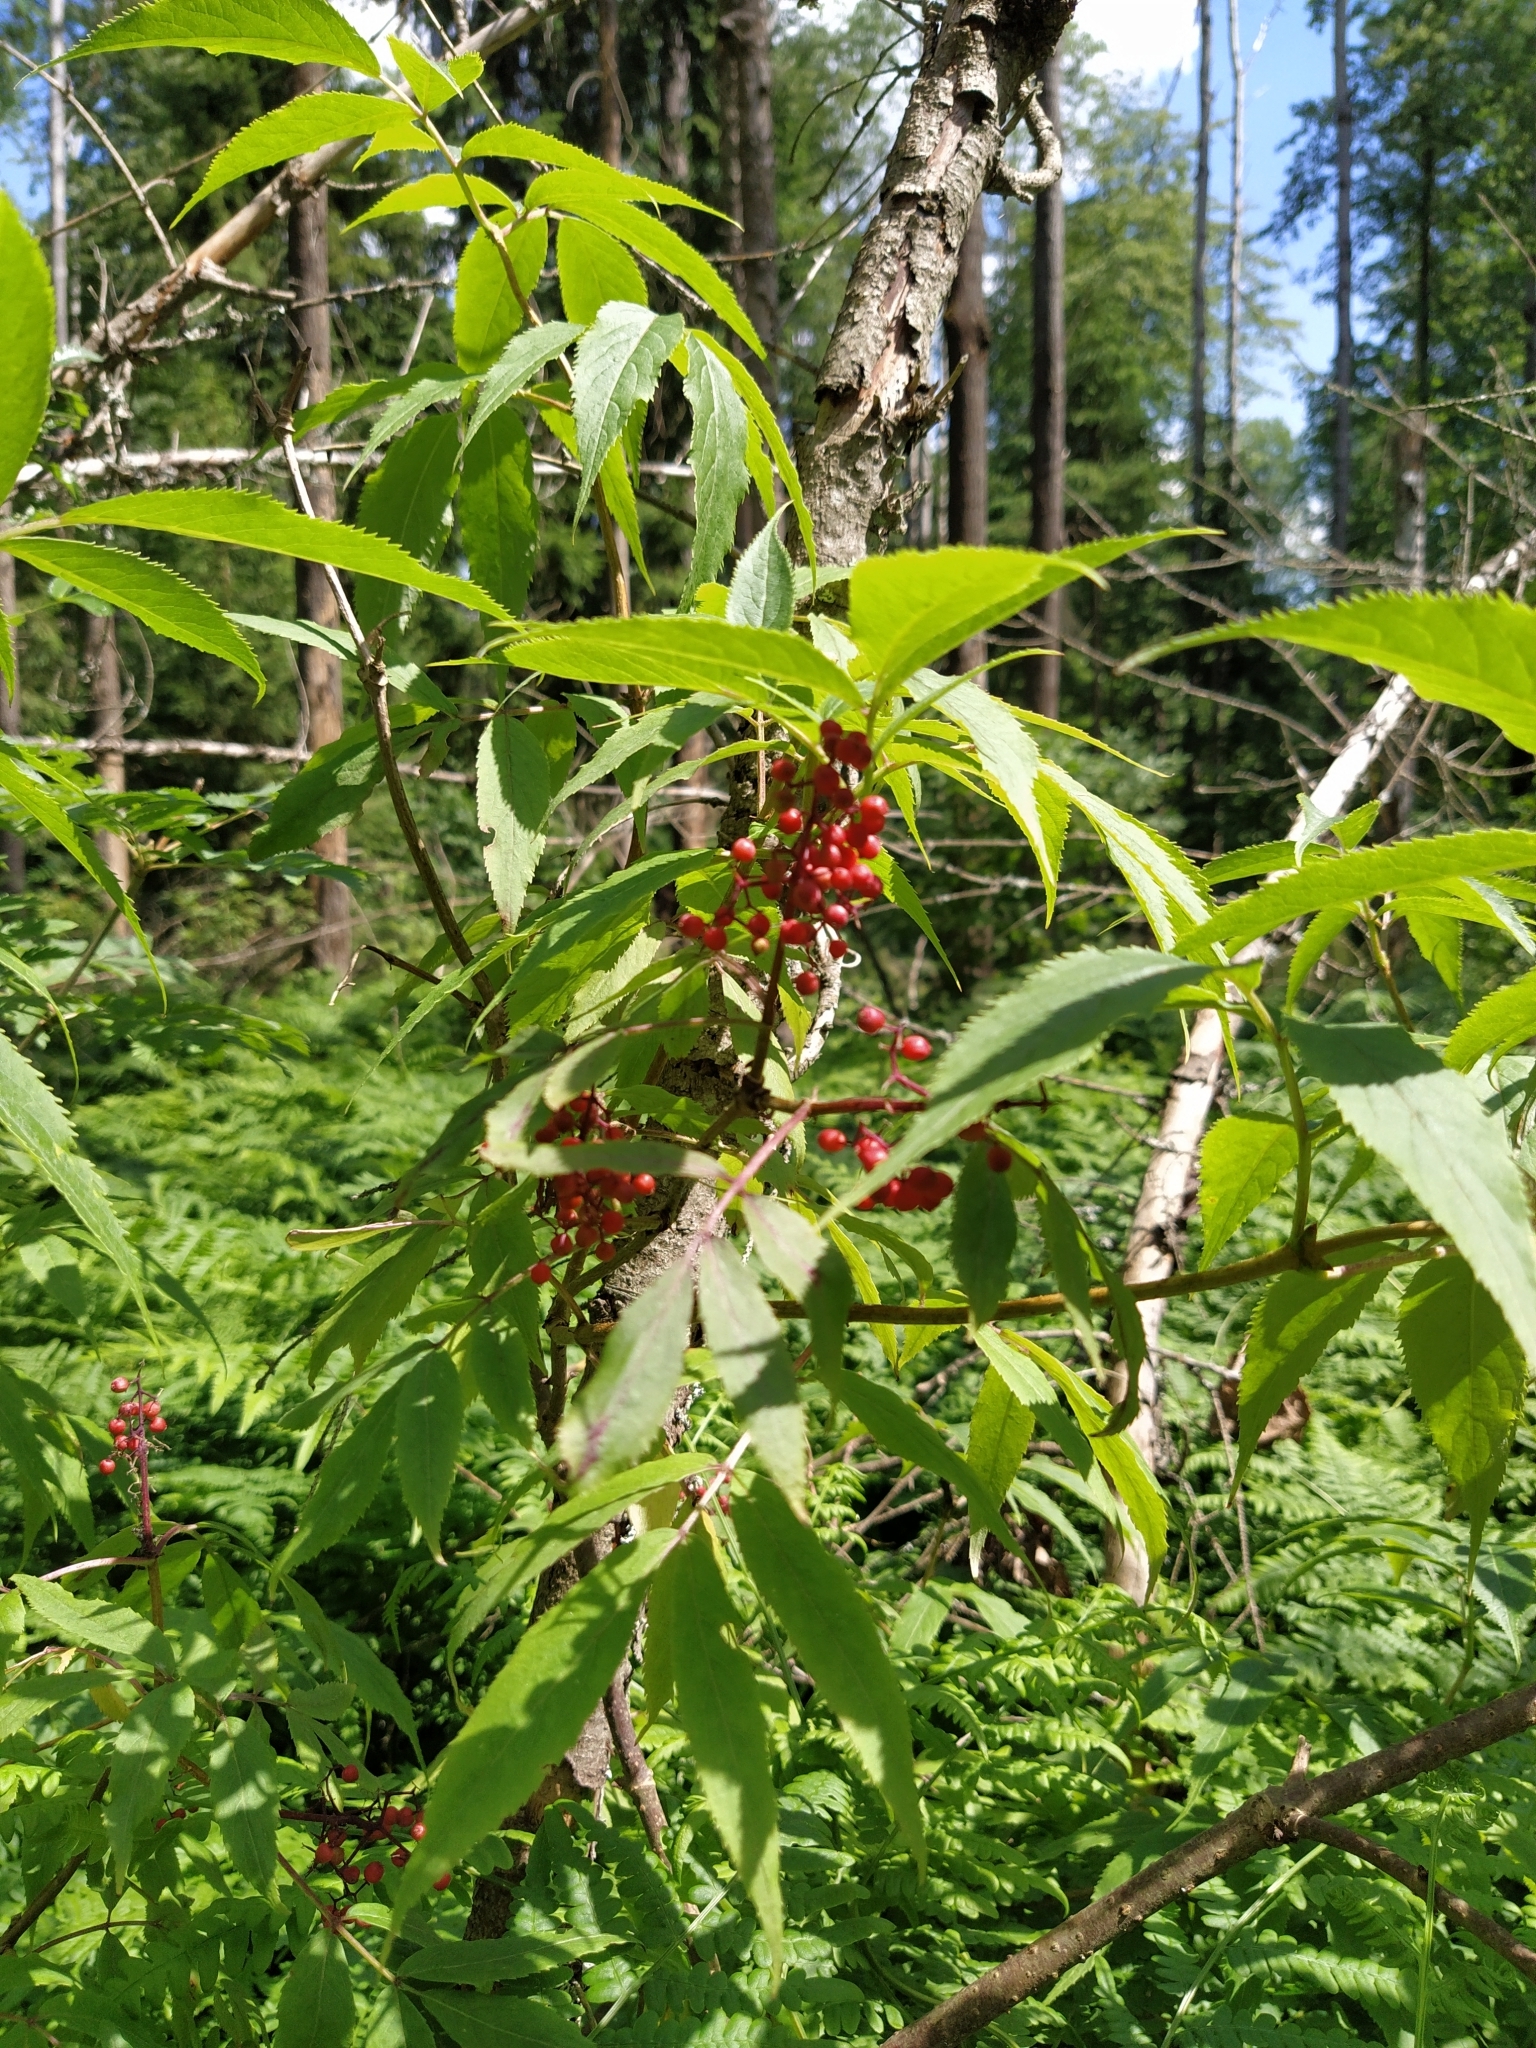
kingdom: Plantae
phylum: Tracheophyta
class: Magnoliopsida
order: Dipsacales
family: Viburnaceae
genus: Sambucus
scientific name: Sambucus racemosa
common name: Red-berried elder
